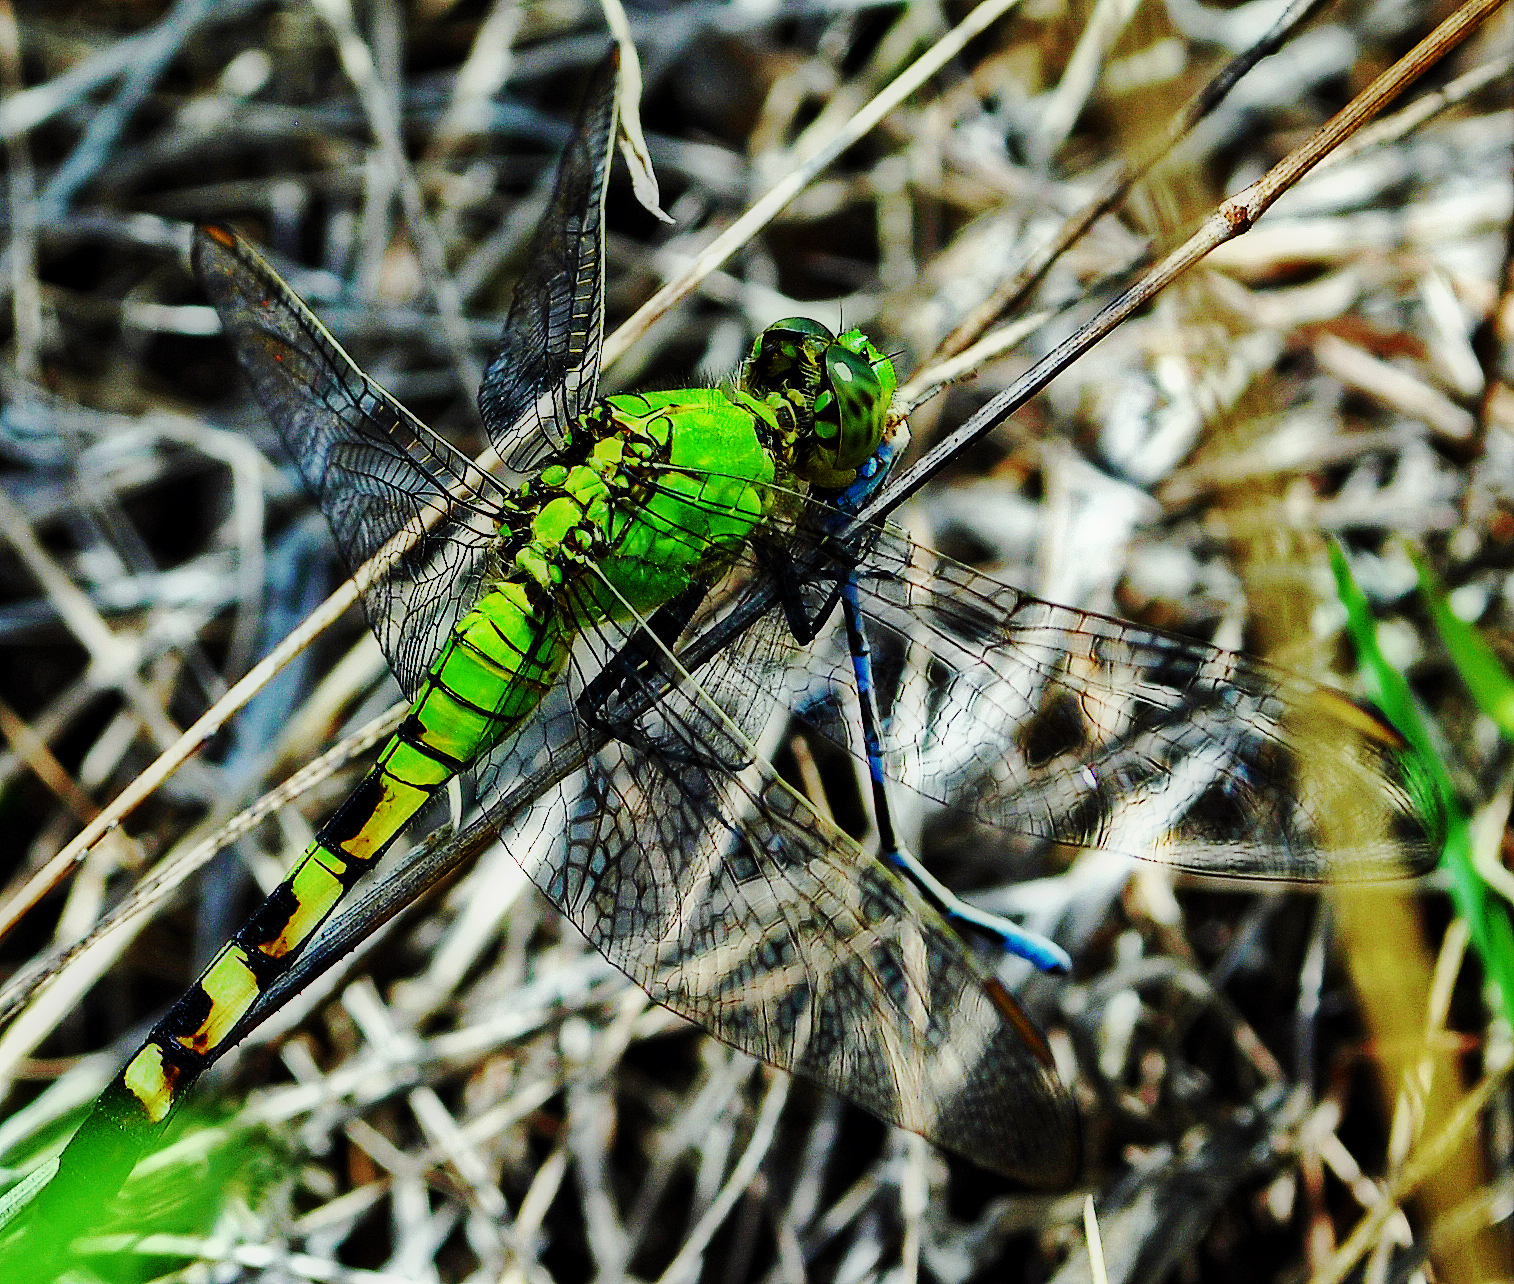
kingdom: Animalia
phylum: Arthropoda
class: Insecta
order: Odonata
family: Libellulidae
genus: Erythemis
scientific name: Erythemis simplicicollis
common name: Eastern pondhawk
